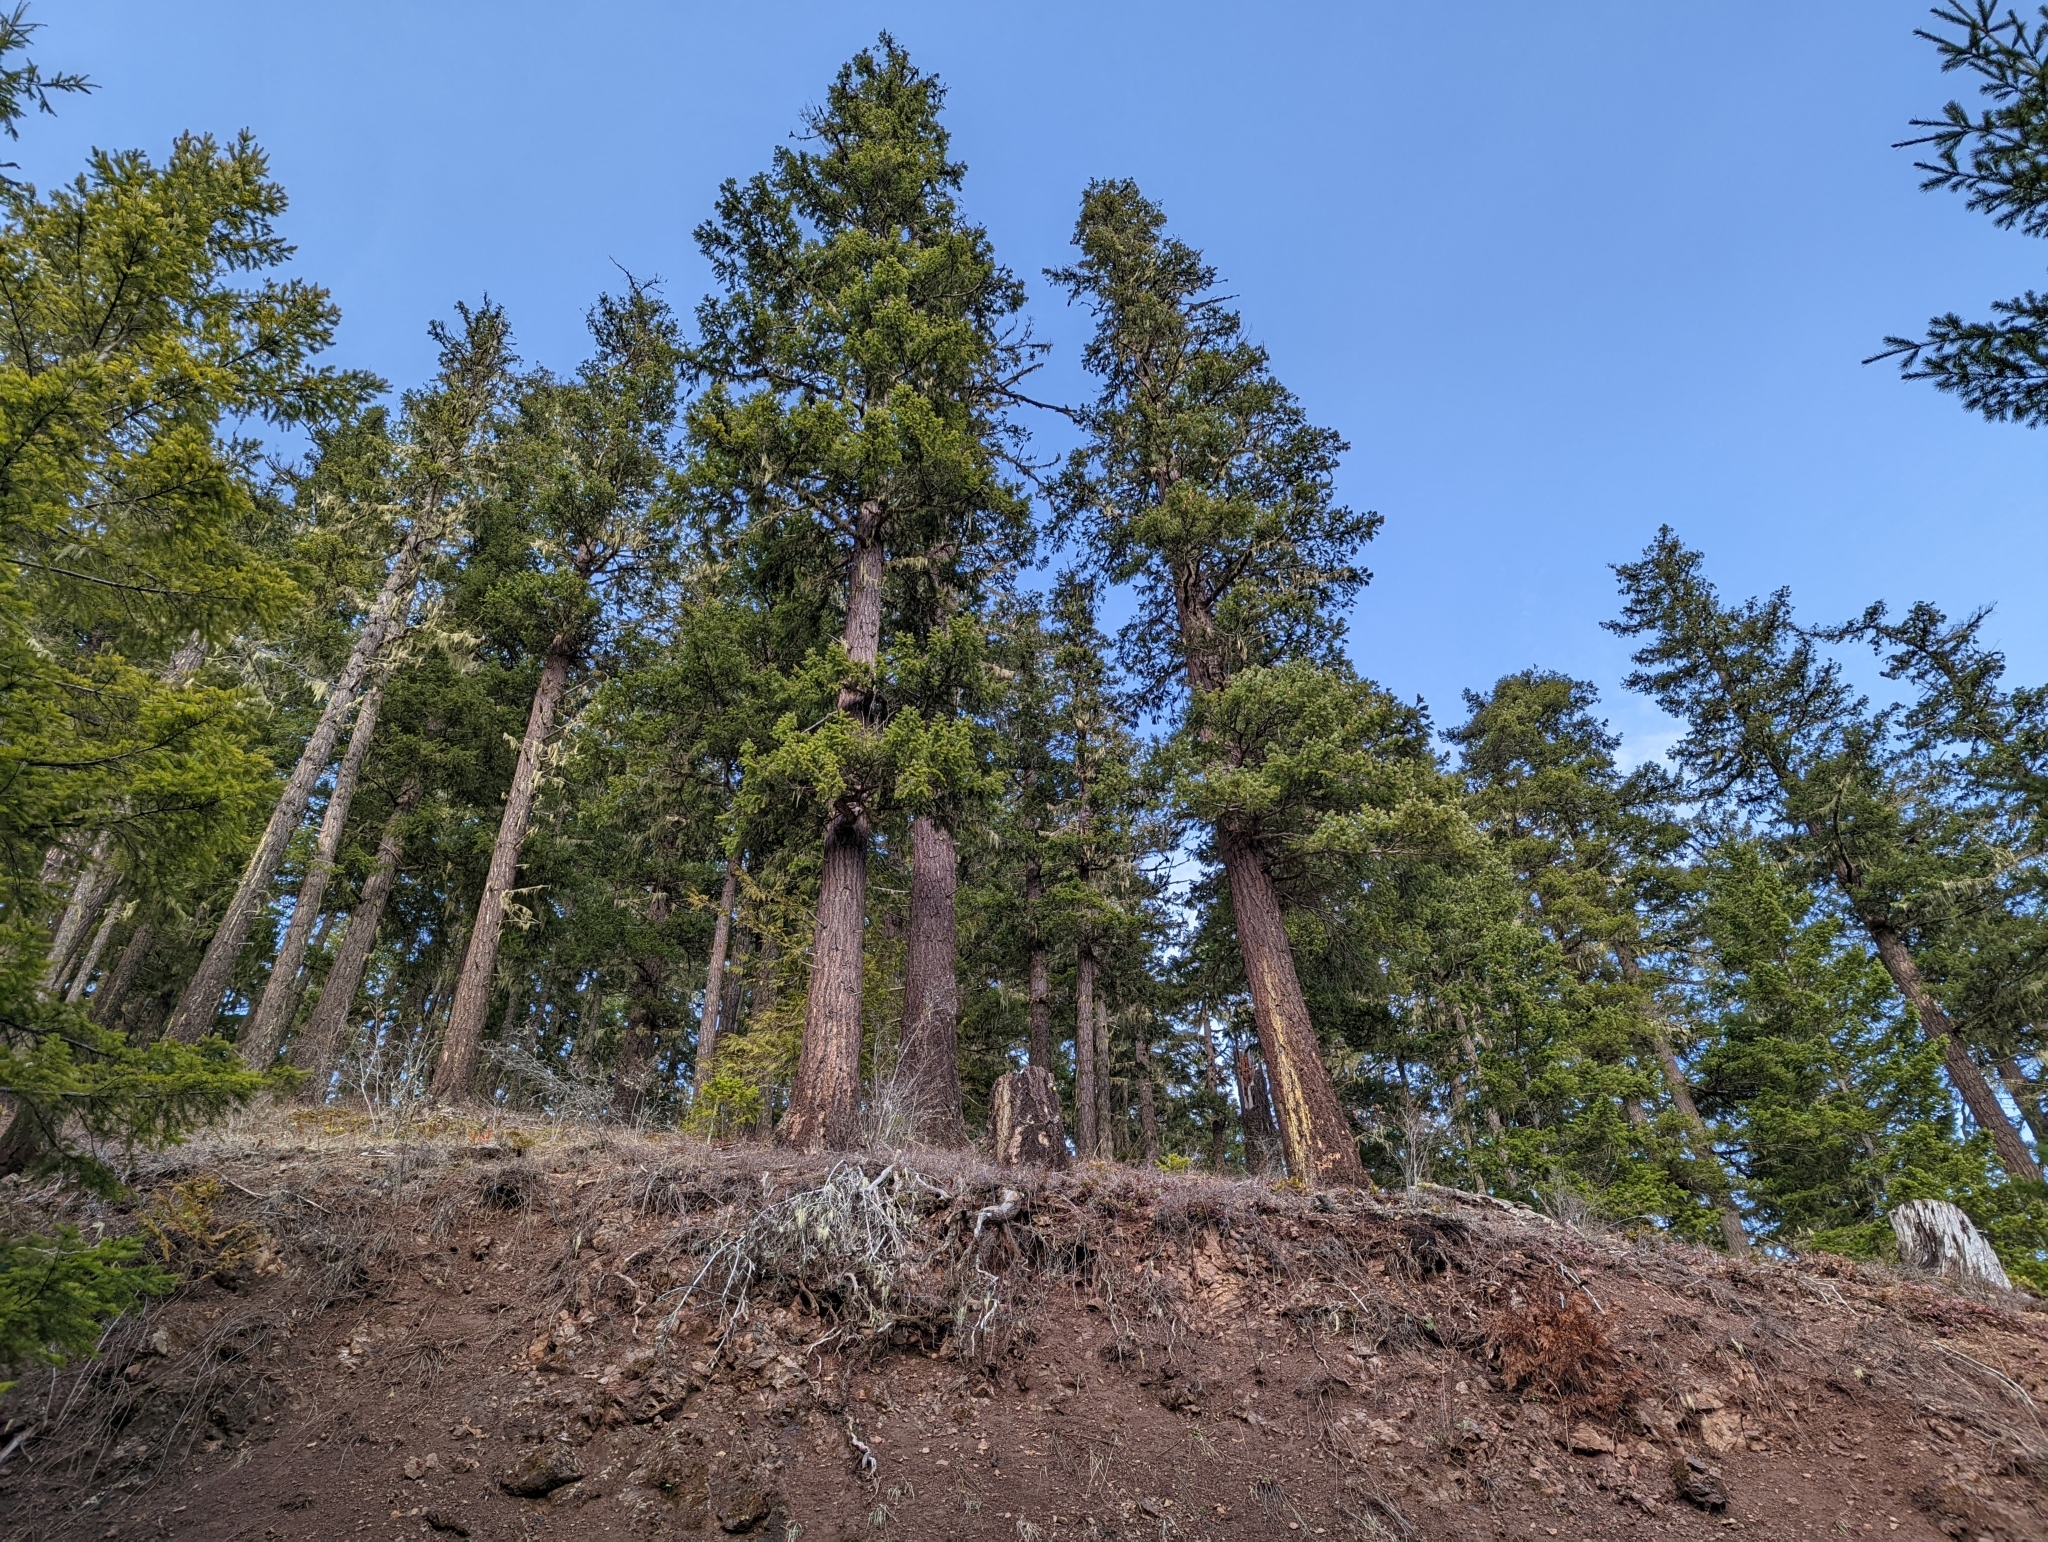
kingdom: Plantae
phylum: Tracheophyta
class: Pinopsida
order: Pinales
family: Pinaceae
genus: Pseudotsuga
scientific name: Pseudotsuga menziesii
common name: Douglas fir
